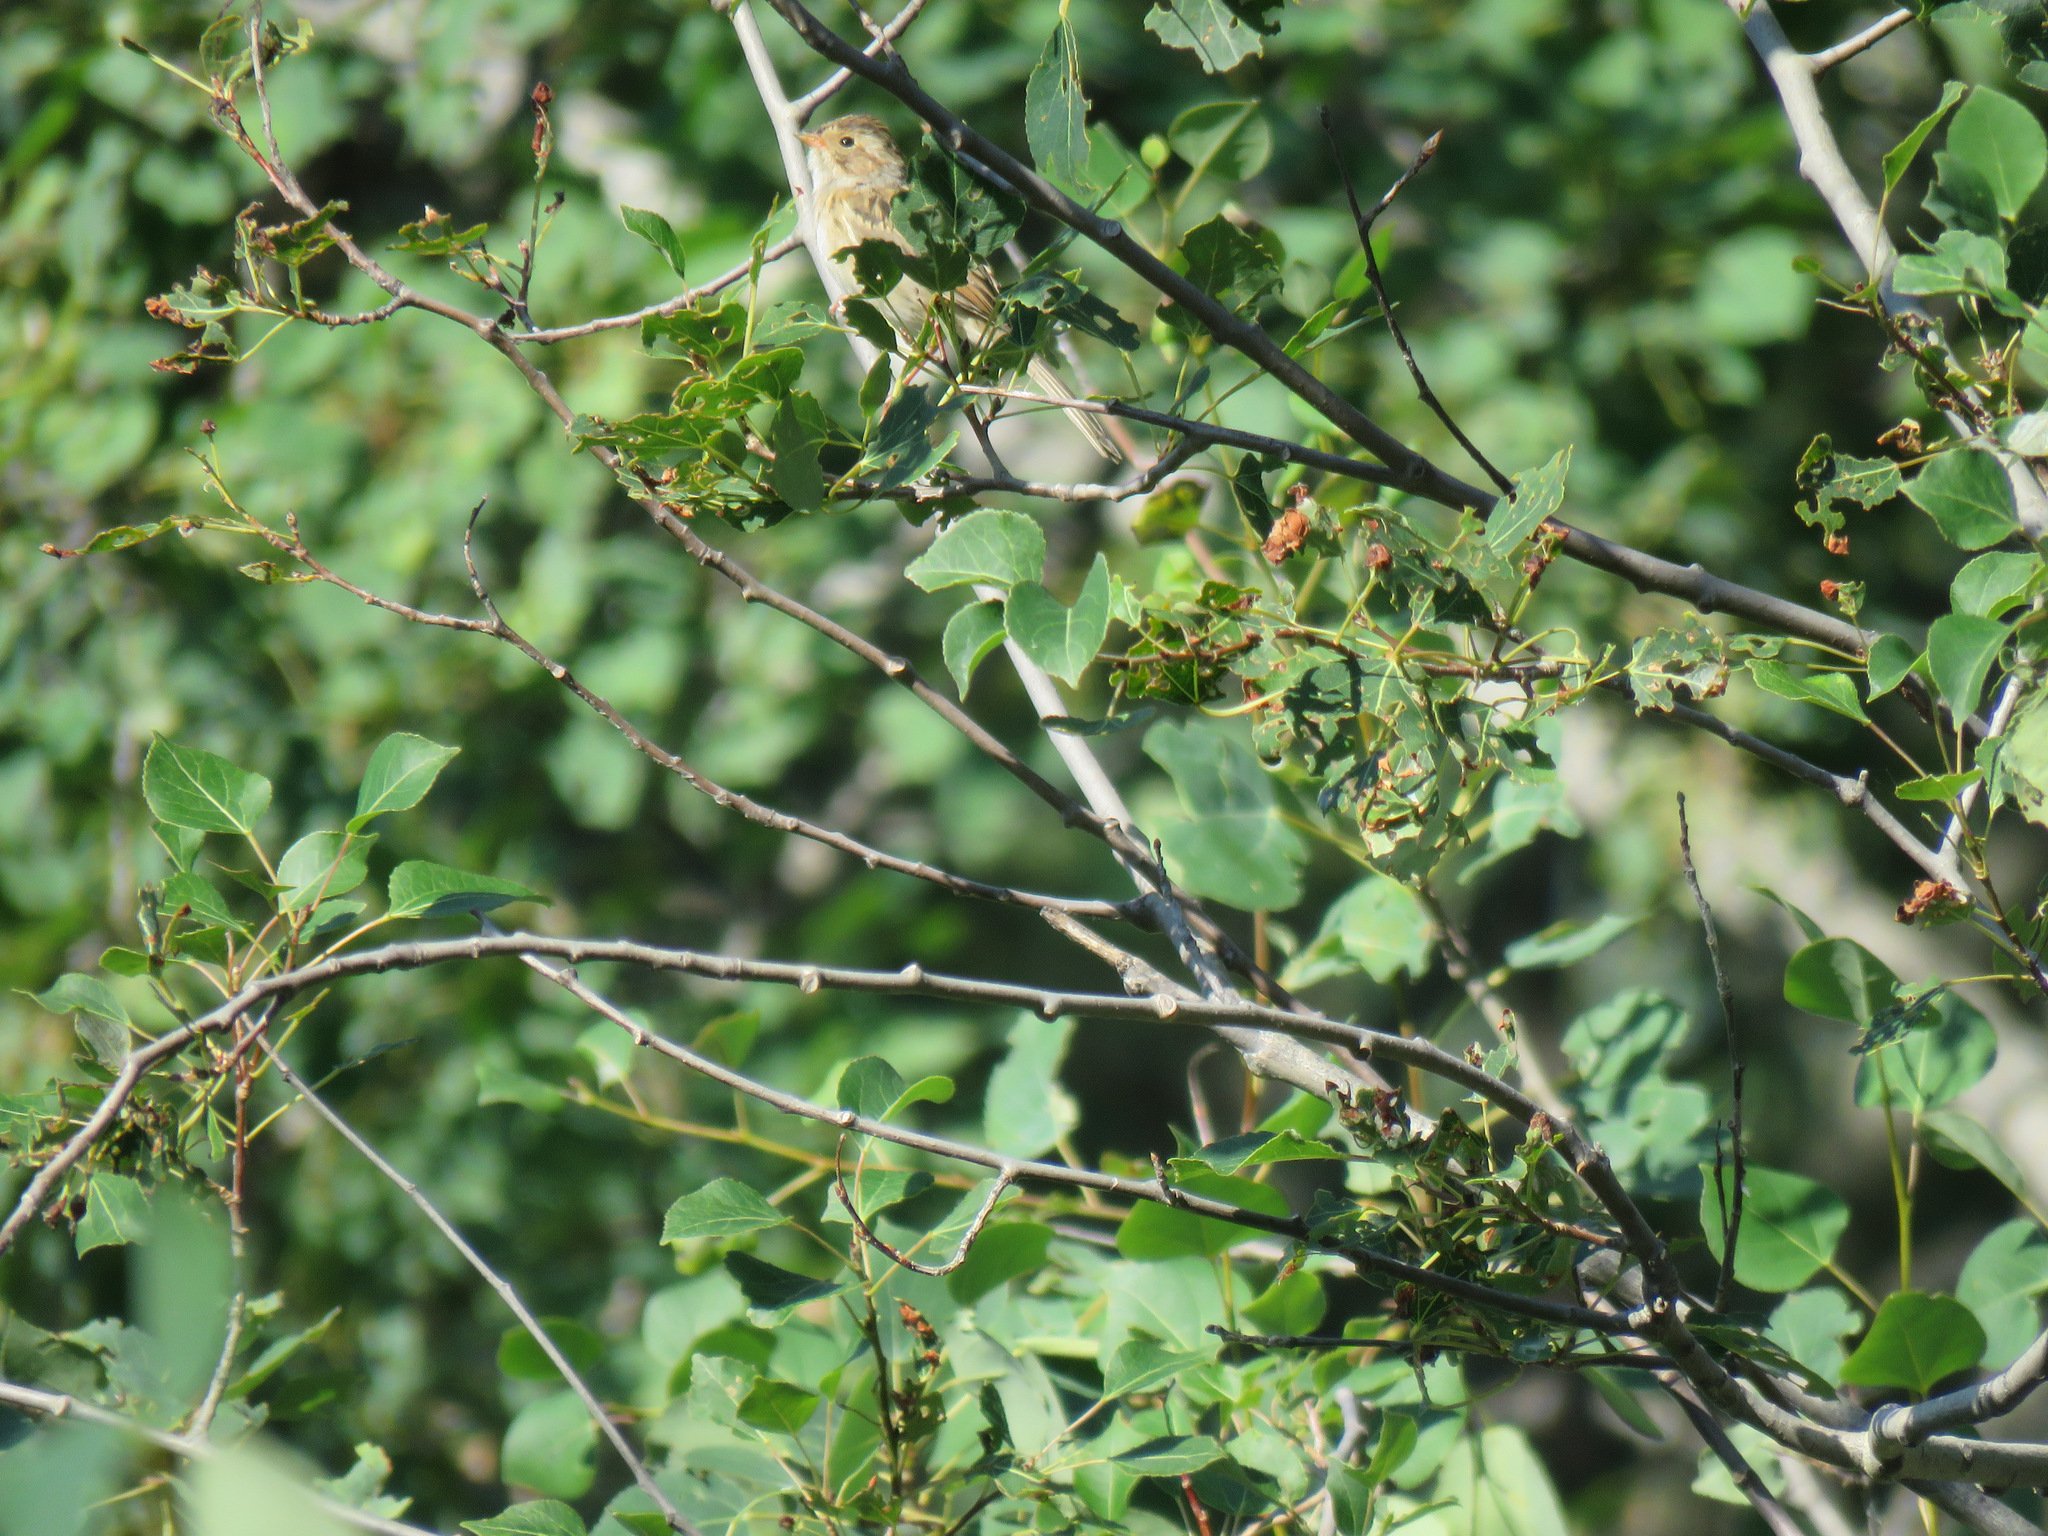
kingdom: Animalia
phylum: Chordata
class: Aves
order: Passeriformes
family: Passerellidae
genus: Spizella
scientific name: Spizella pallida
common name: Clay-colored sparrow
